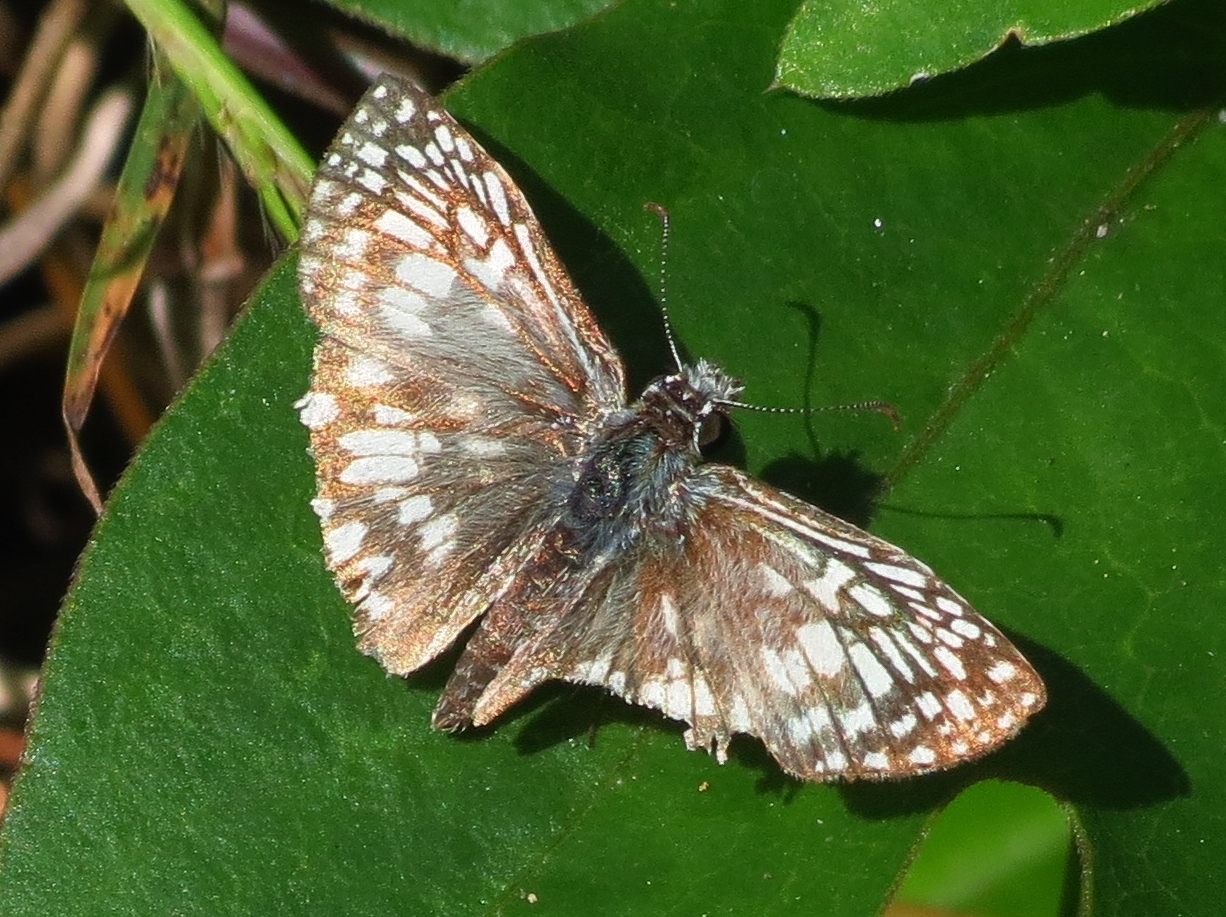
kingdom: Animalia
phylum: Arthropoda
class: Insecta
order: Lepidoptera
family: Hesperiidae
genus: Pyrgus
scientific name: Pyrgus oileus
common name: Tropical checkered-skipper
